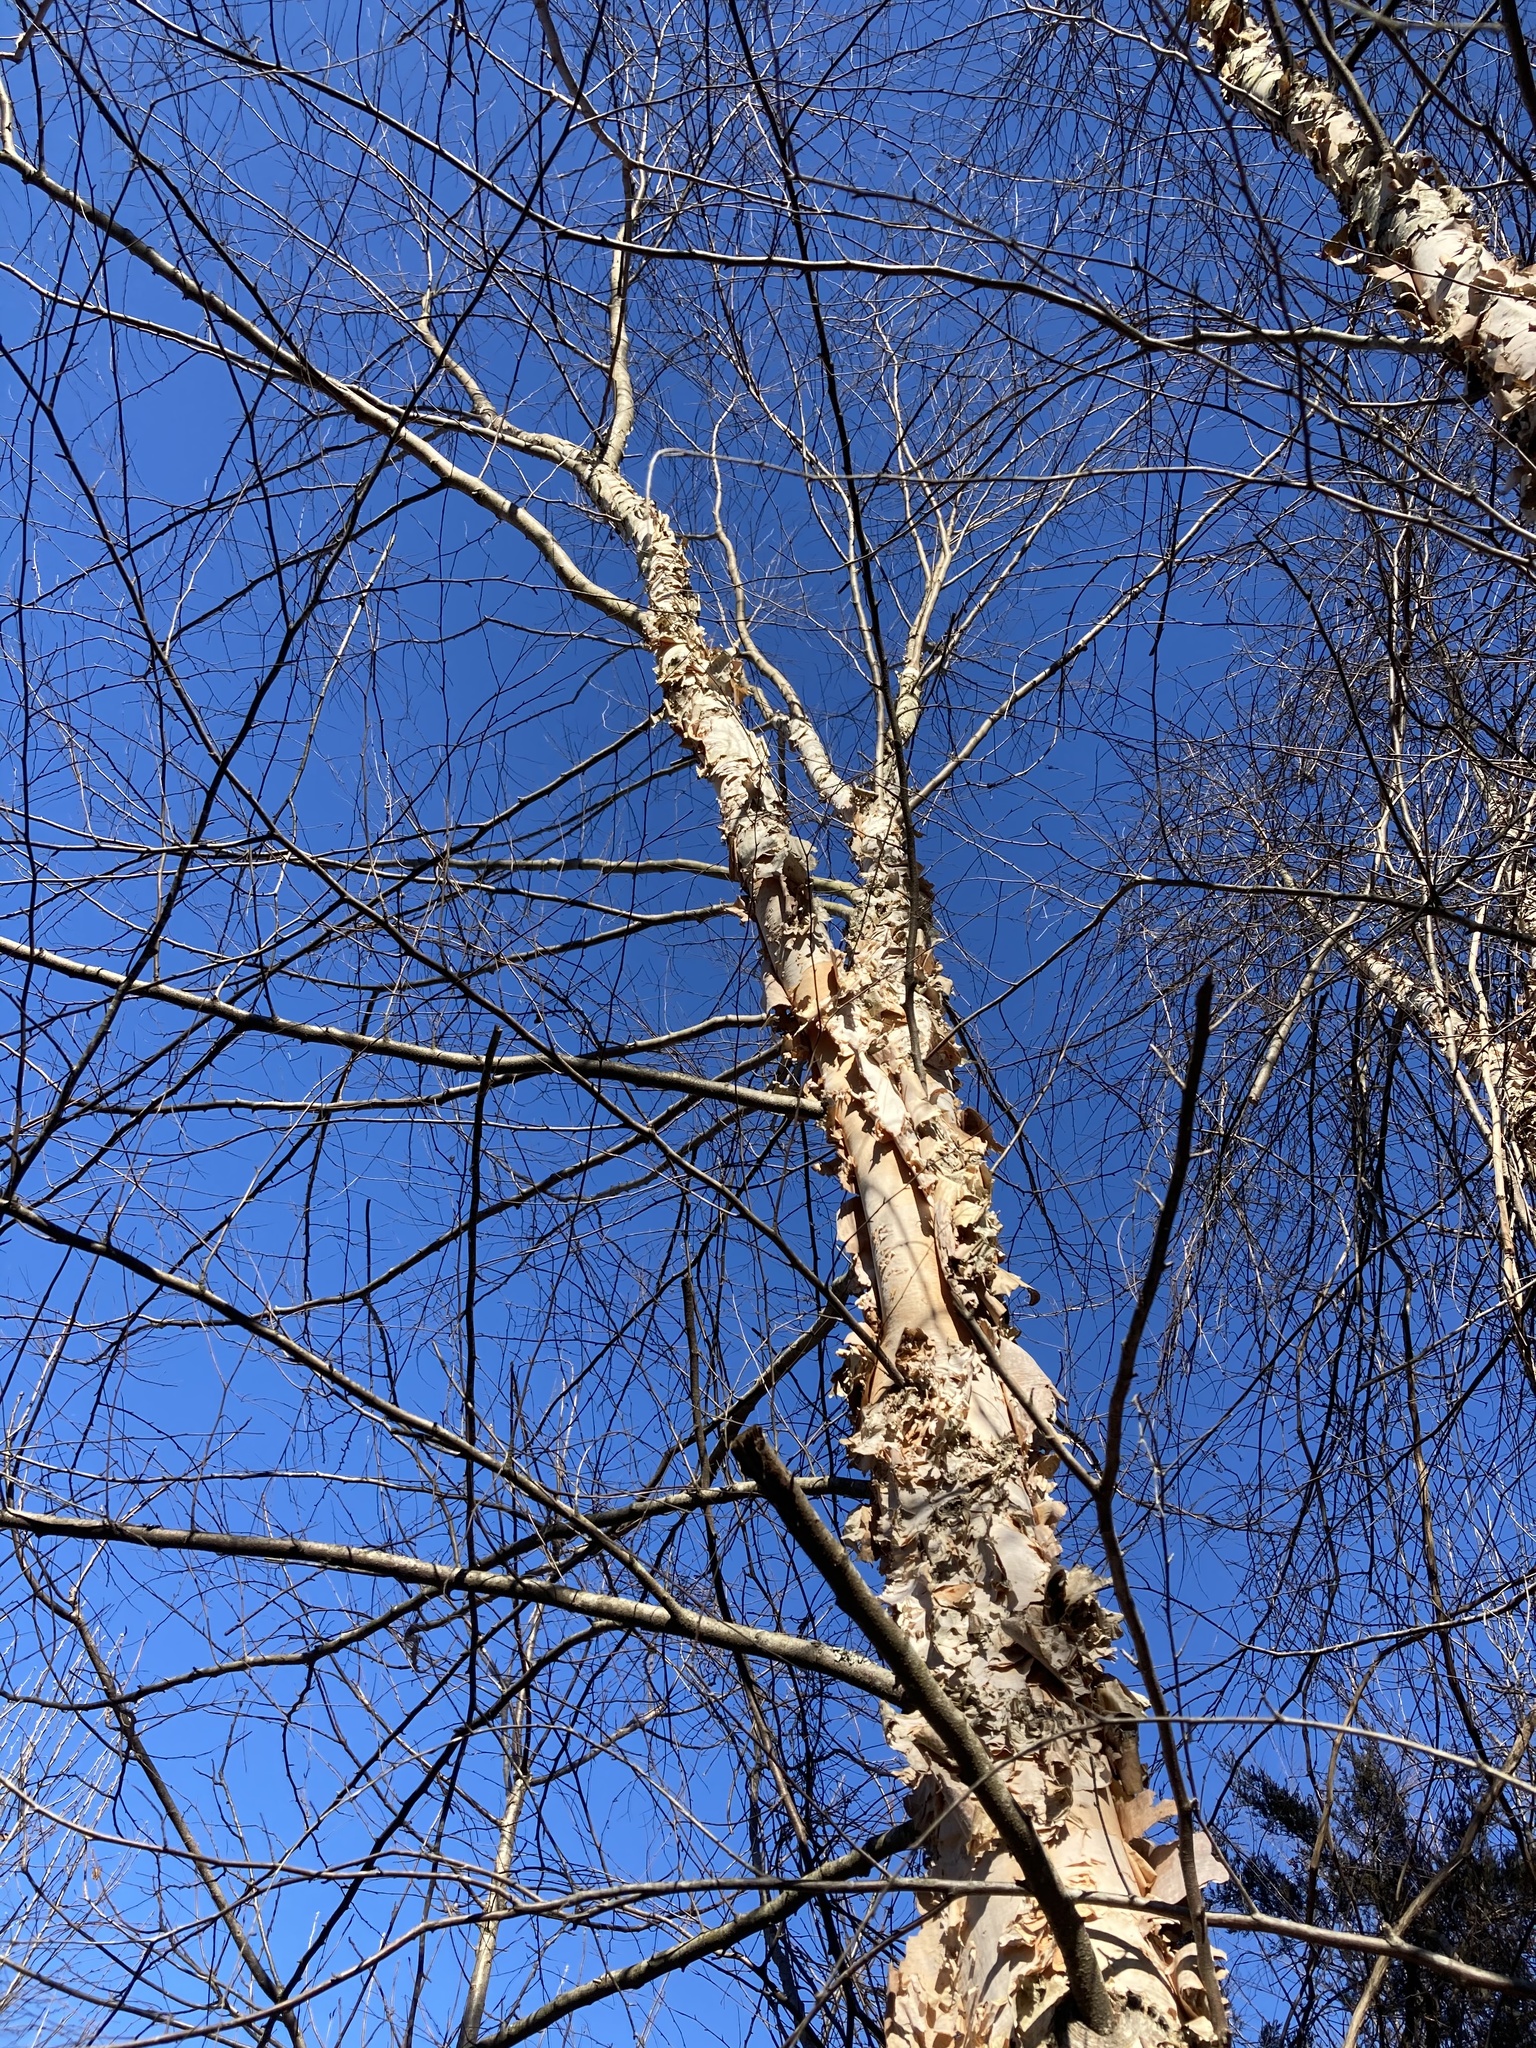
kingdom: Plantae
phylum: Tracheophyta
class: Magnoliopsida
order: Fagales
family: Betulaceae
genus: Betula
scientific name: Betula nigra
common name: Black birch
